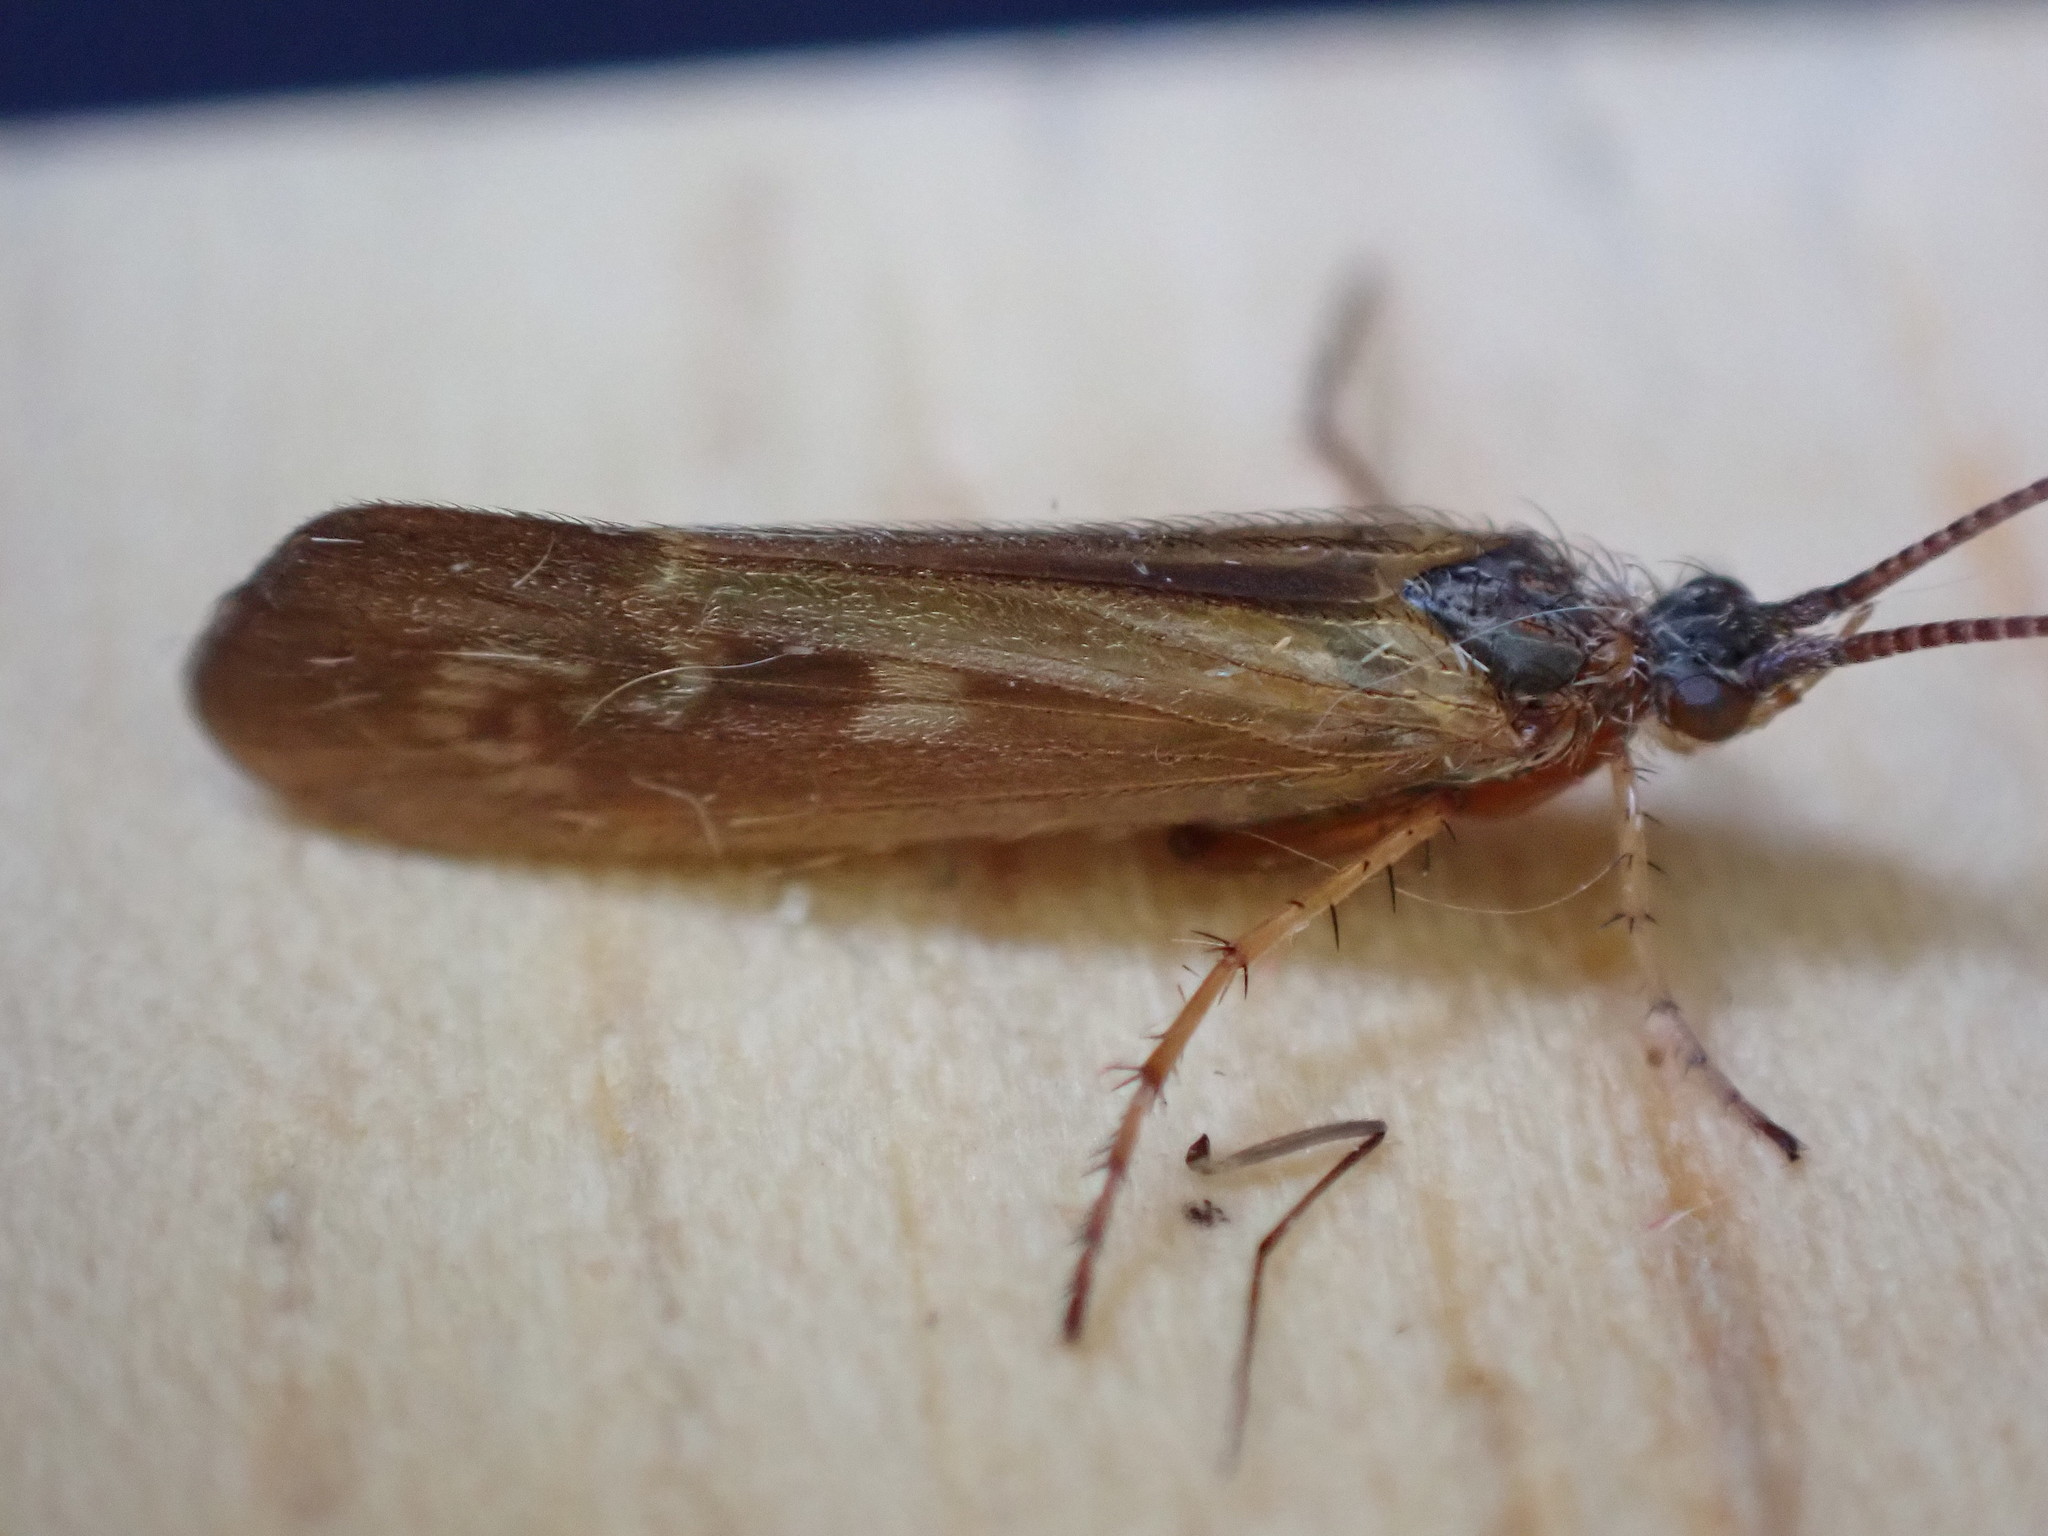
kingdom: Animalia
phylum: Arthropoda
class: Insecta
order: Trichoptera
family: Limnephilidae
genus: Limnephilus
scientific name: Limnephilus auricula
